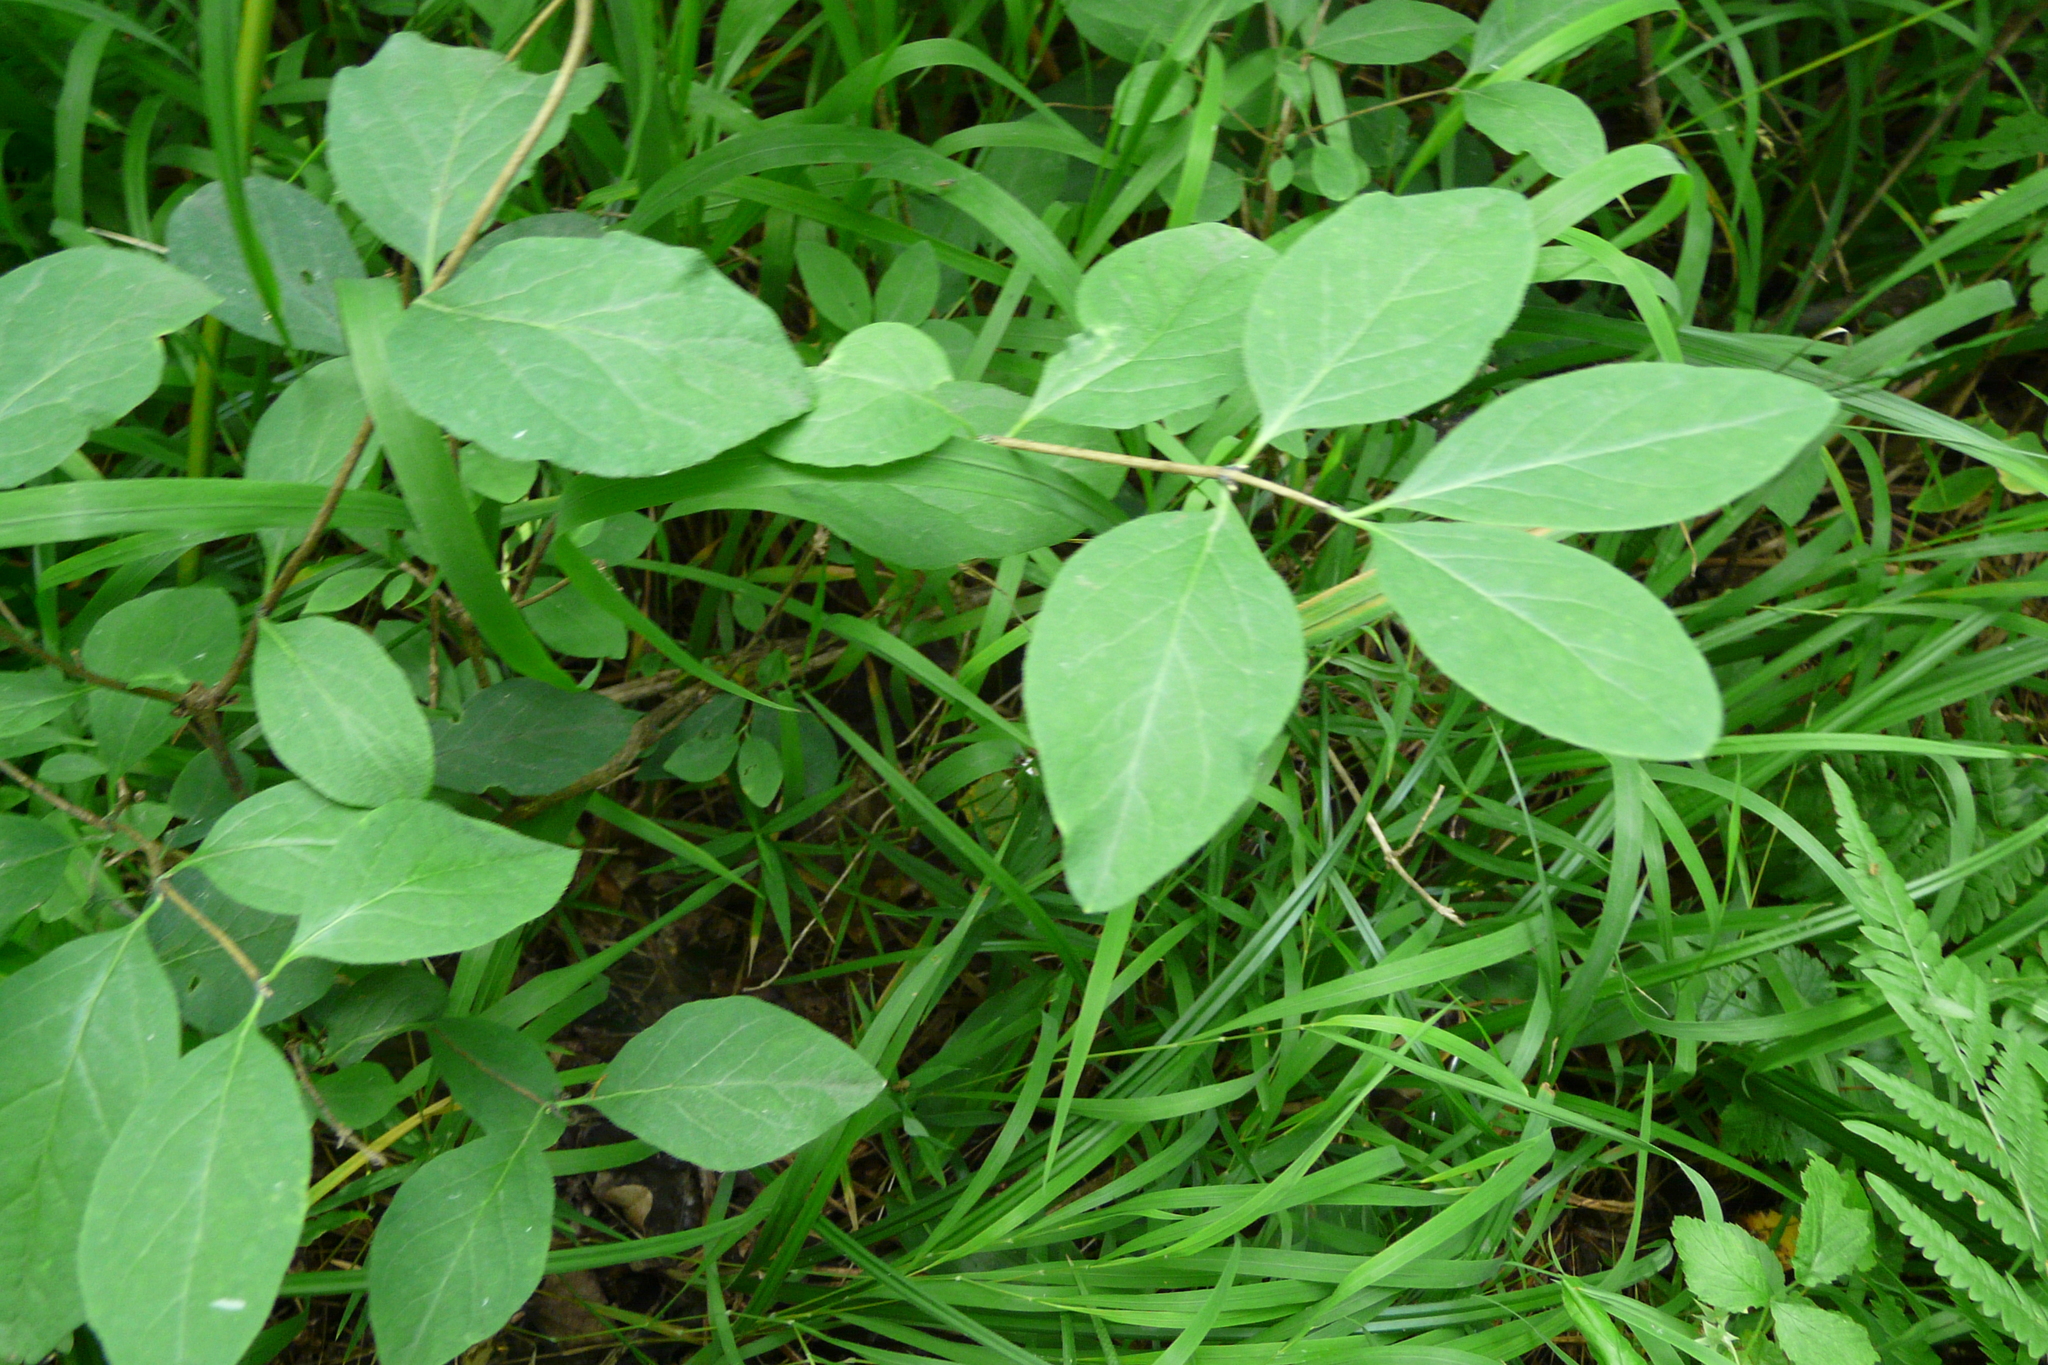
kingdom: Plantae
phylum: Tracheophyta
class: Magnoliopsida
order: Dipsacales
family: Caprifoliaceae
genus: Lonicera
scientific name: Lonicera xylosteum
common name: Fly honeysuckle
